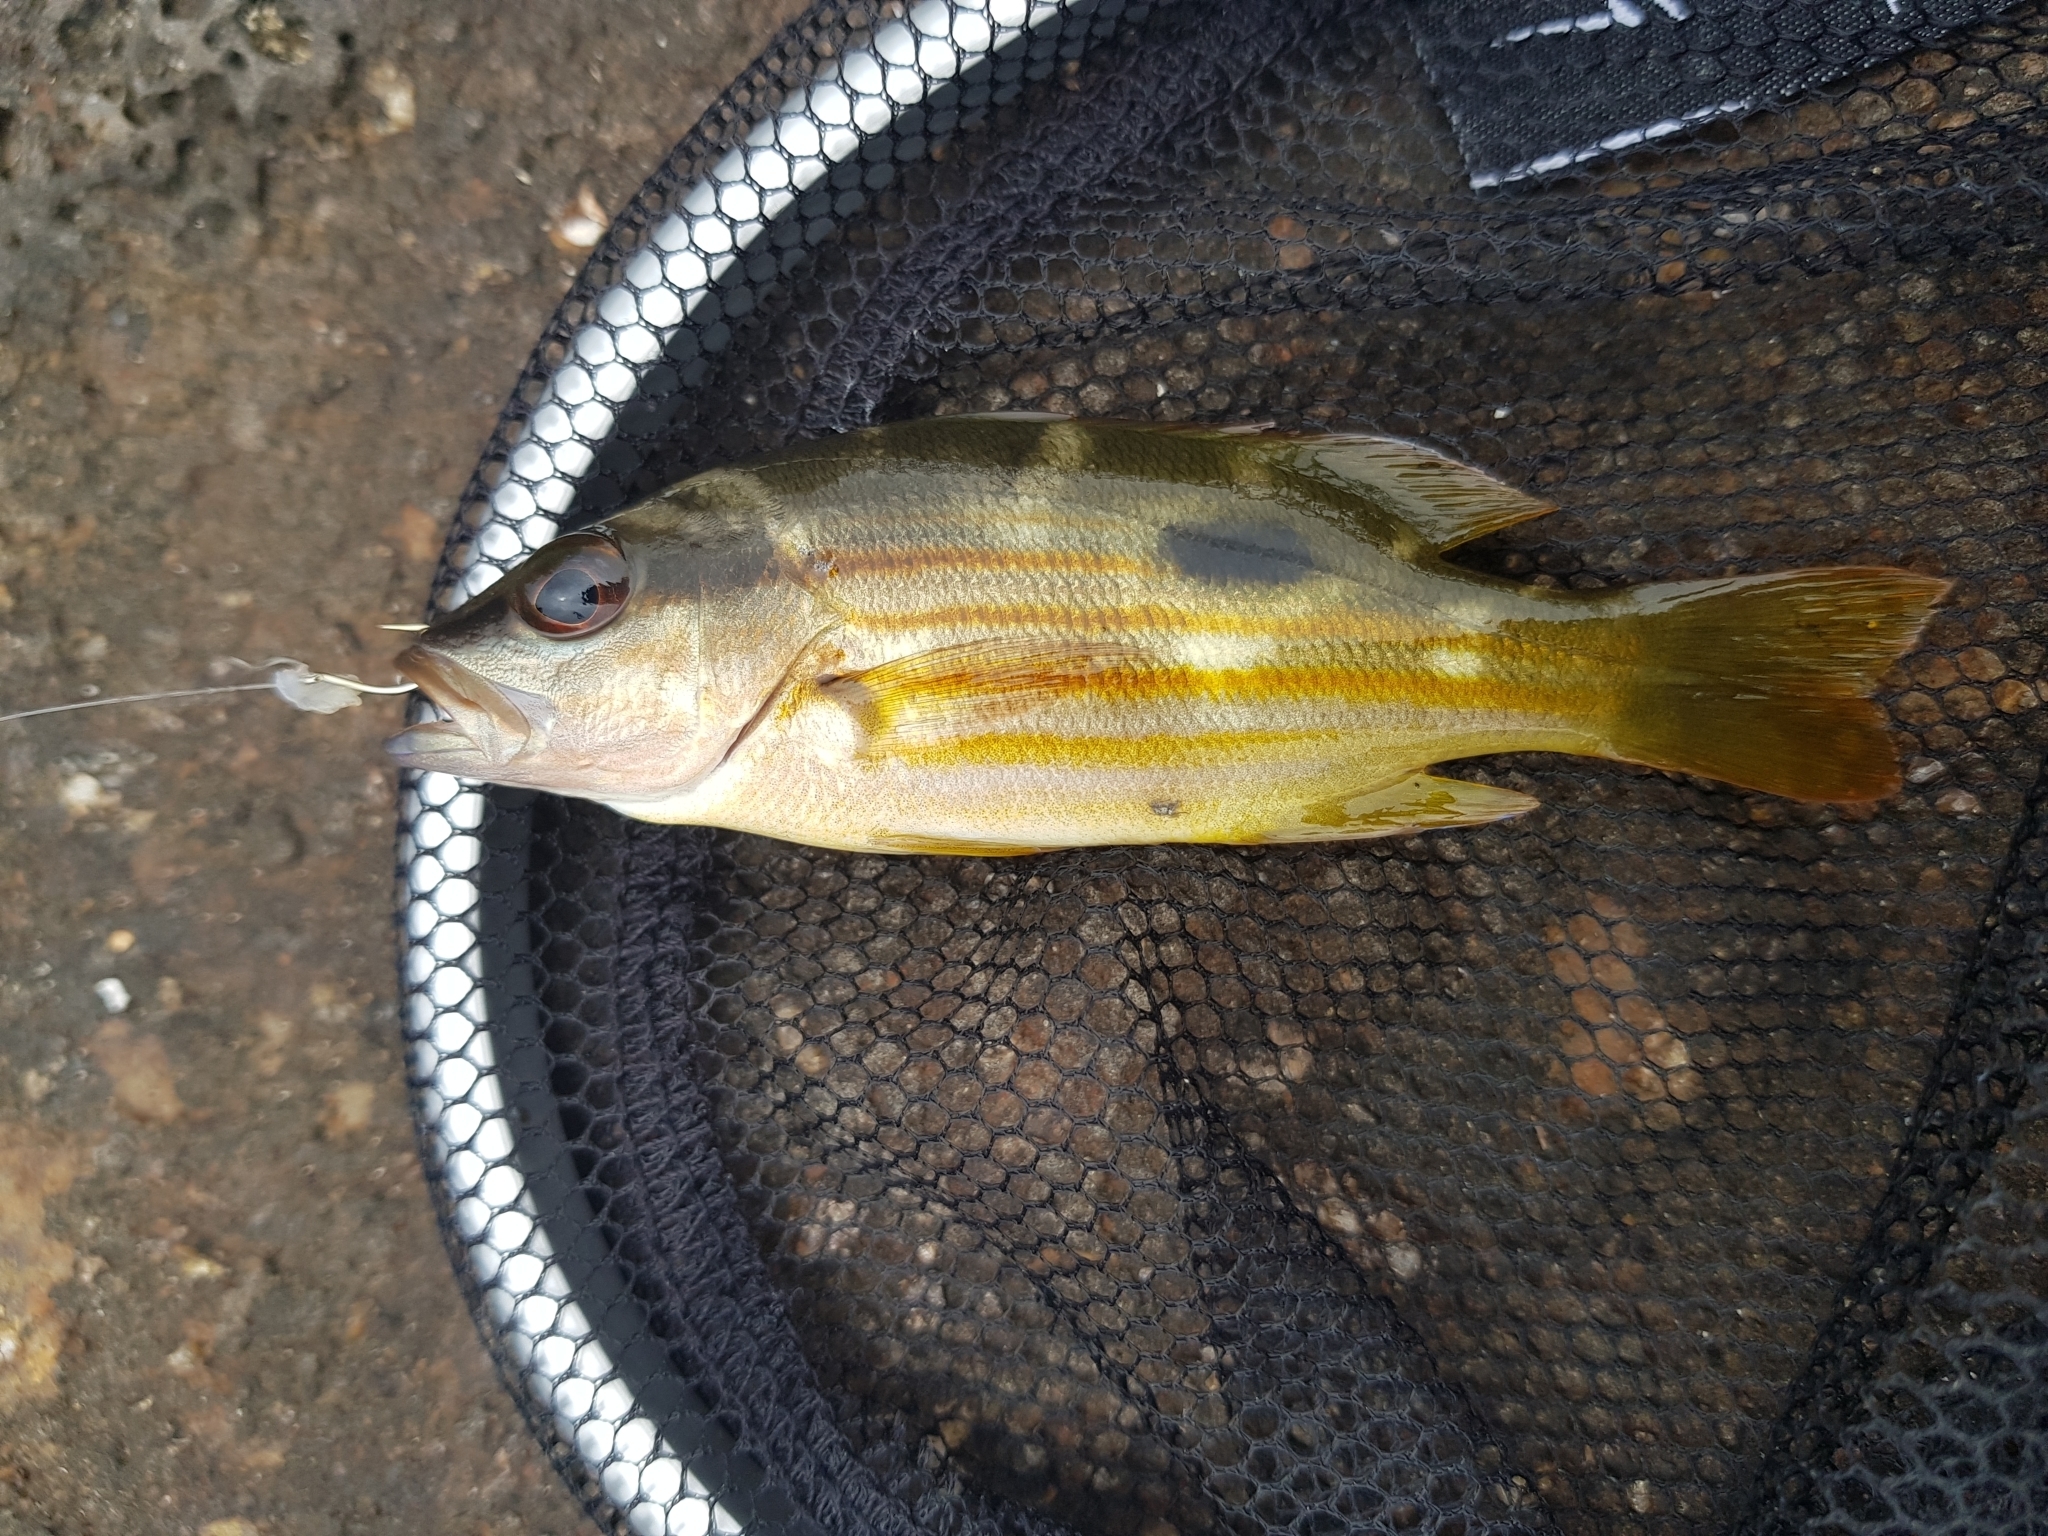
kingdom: Animalia
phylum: Chordata
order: Perciformes
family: Lutjanidae
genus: Lutjanus
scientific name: Lutjanus fulviflamma
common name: Blackspot snapper
